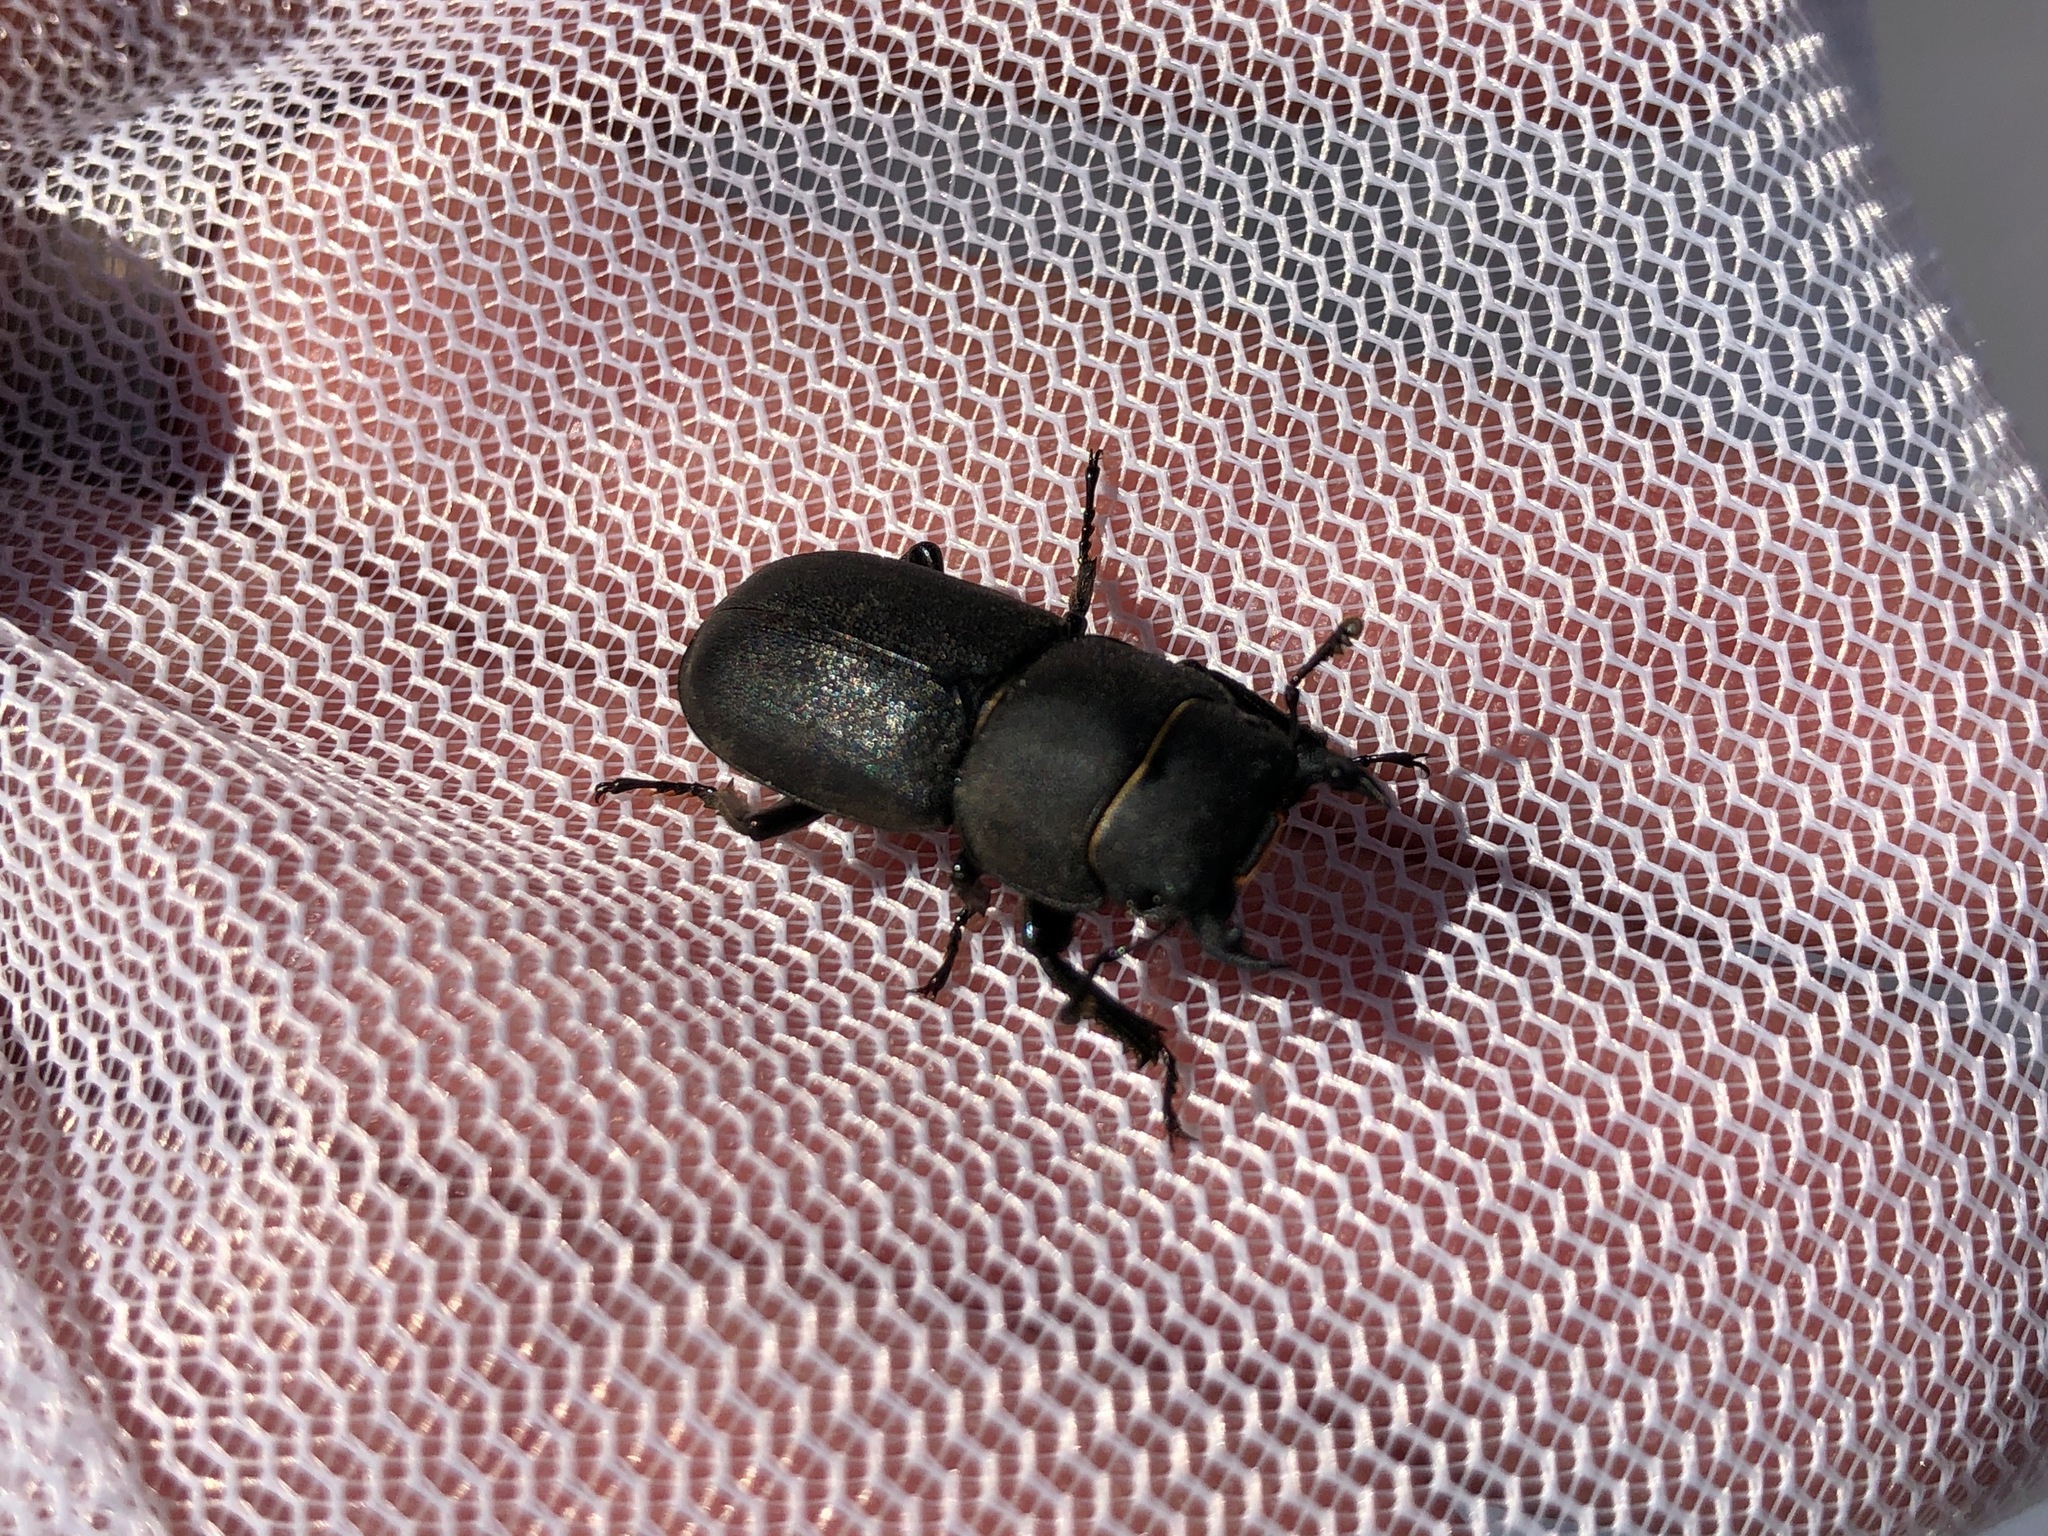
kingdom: Animalia
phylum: Arthropoda
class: Insecta
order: Coleoptera
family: Lucanidae
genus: Dorcus
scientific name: Dorcus parallelipipedus
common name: Lesser stag beetle
